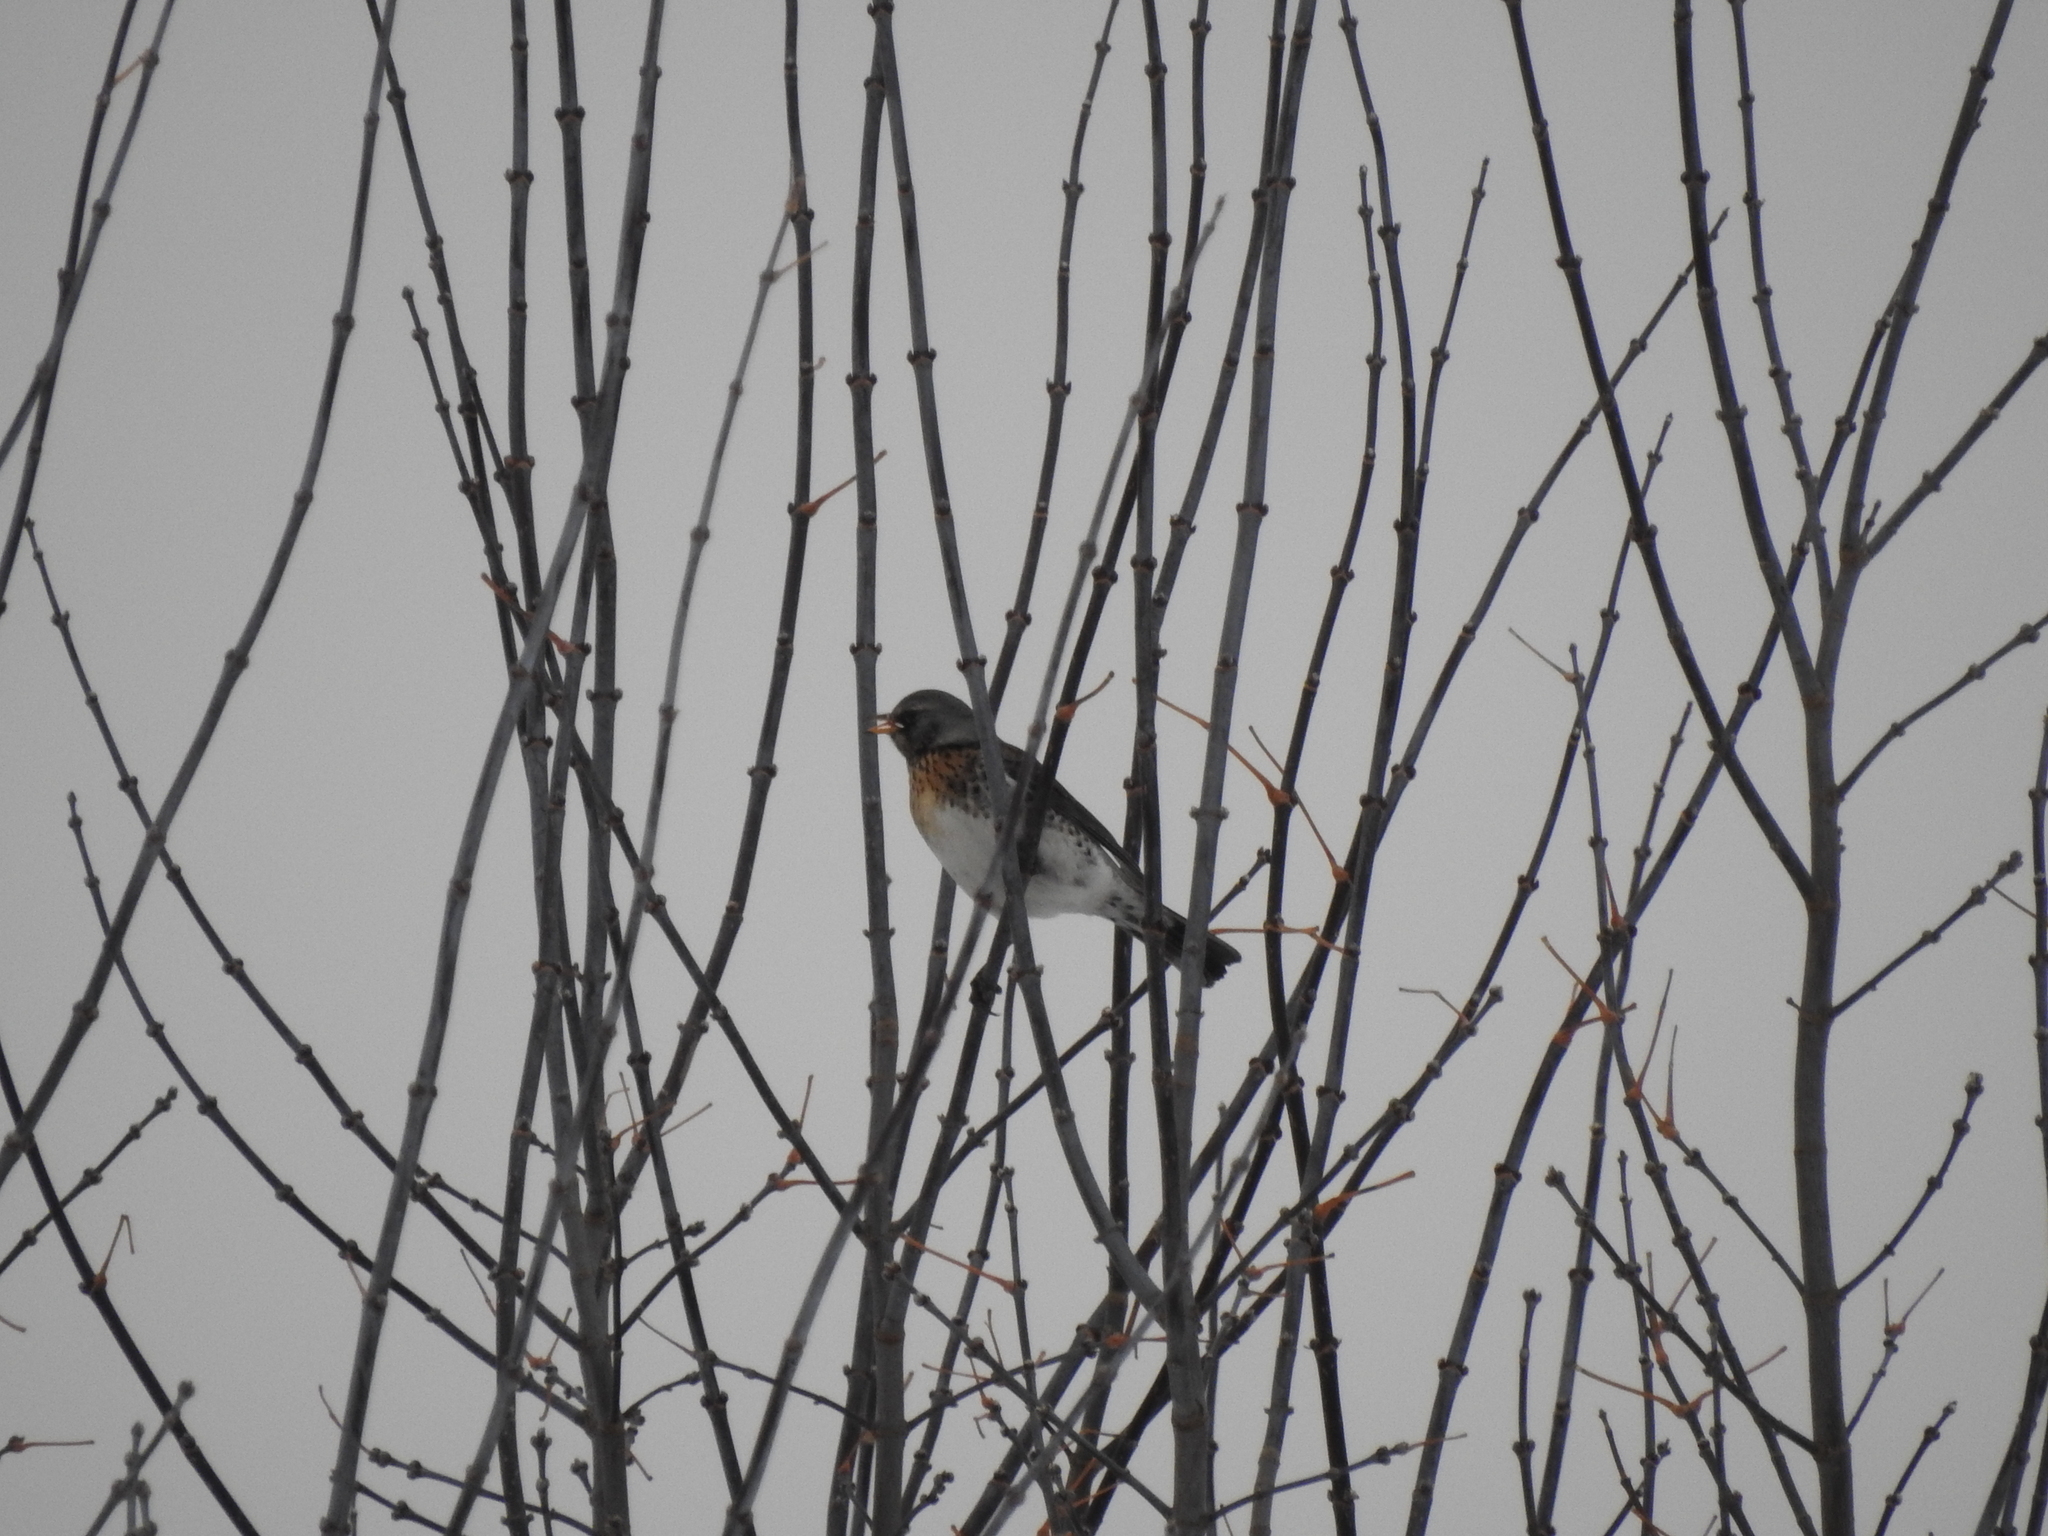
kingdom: Animalia
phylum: Chordata
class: Aves
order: Passeriformes
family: Turdidae
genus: Turdus
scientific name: Turdus pilaris
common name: Fieldfare
